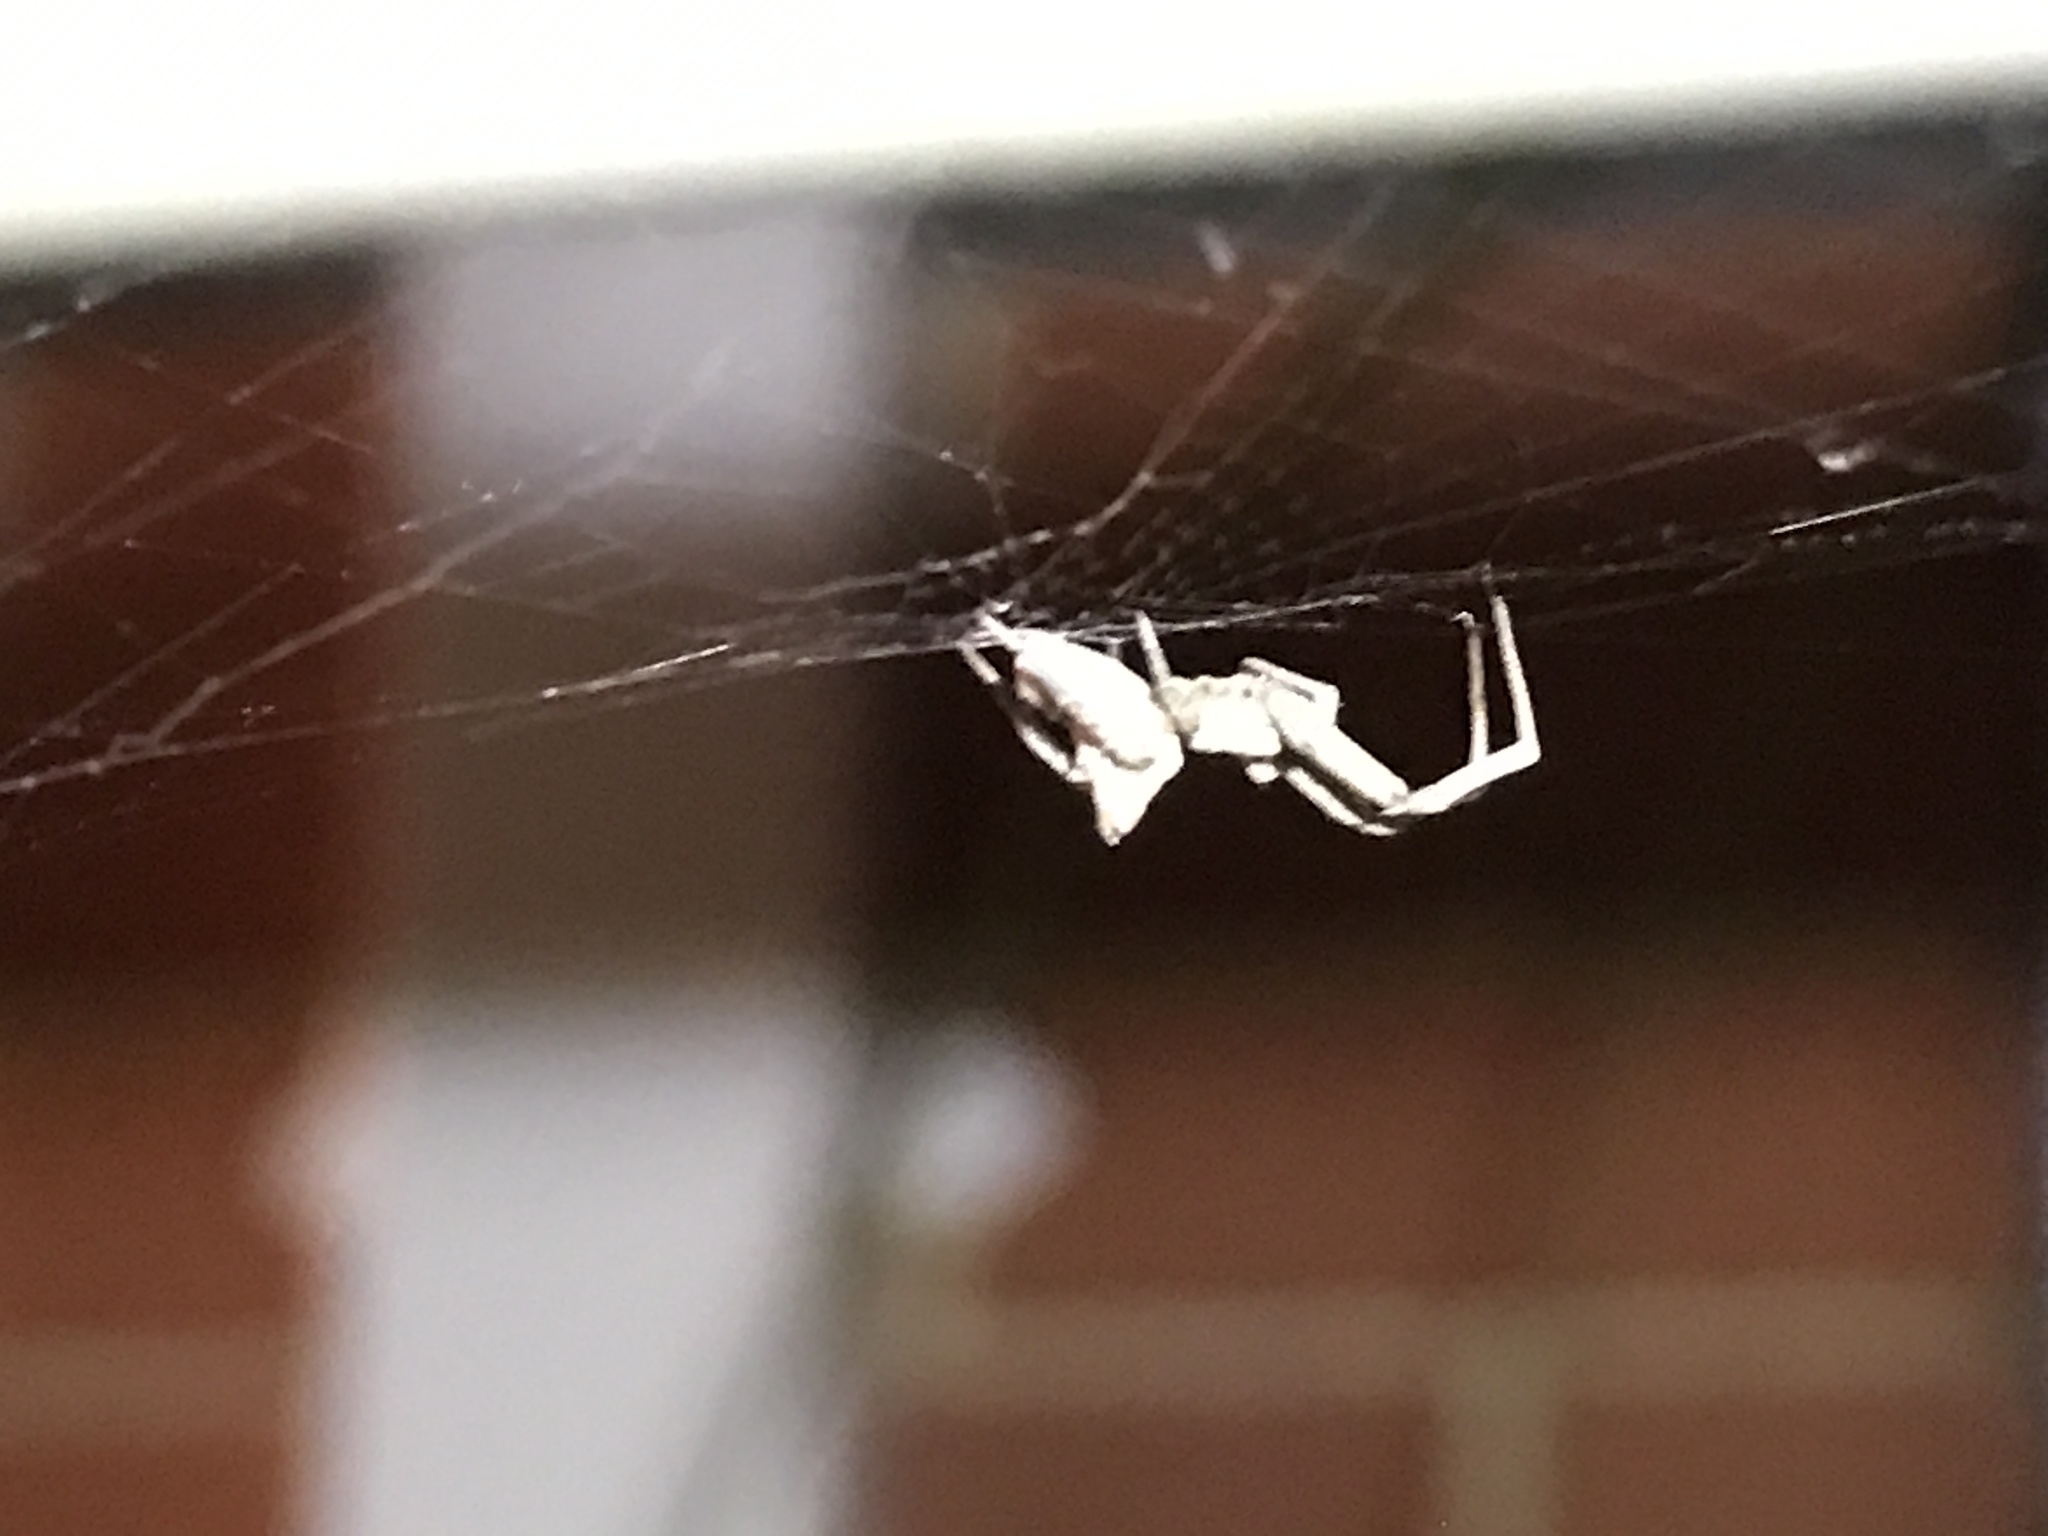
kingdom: Animalia
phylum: Arthropoda
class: Arachnida
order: Araneae
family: Uloboridae
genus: Philoponella
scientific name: Philoponella congregabilis
